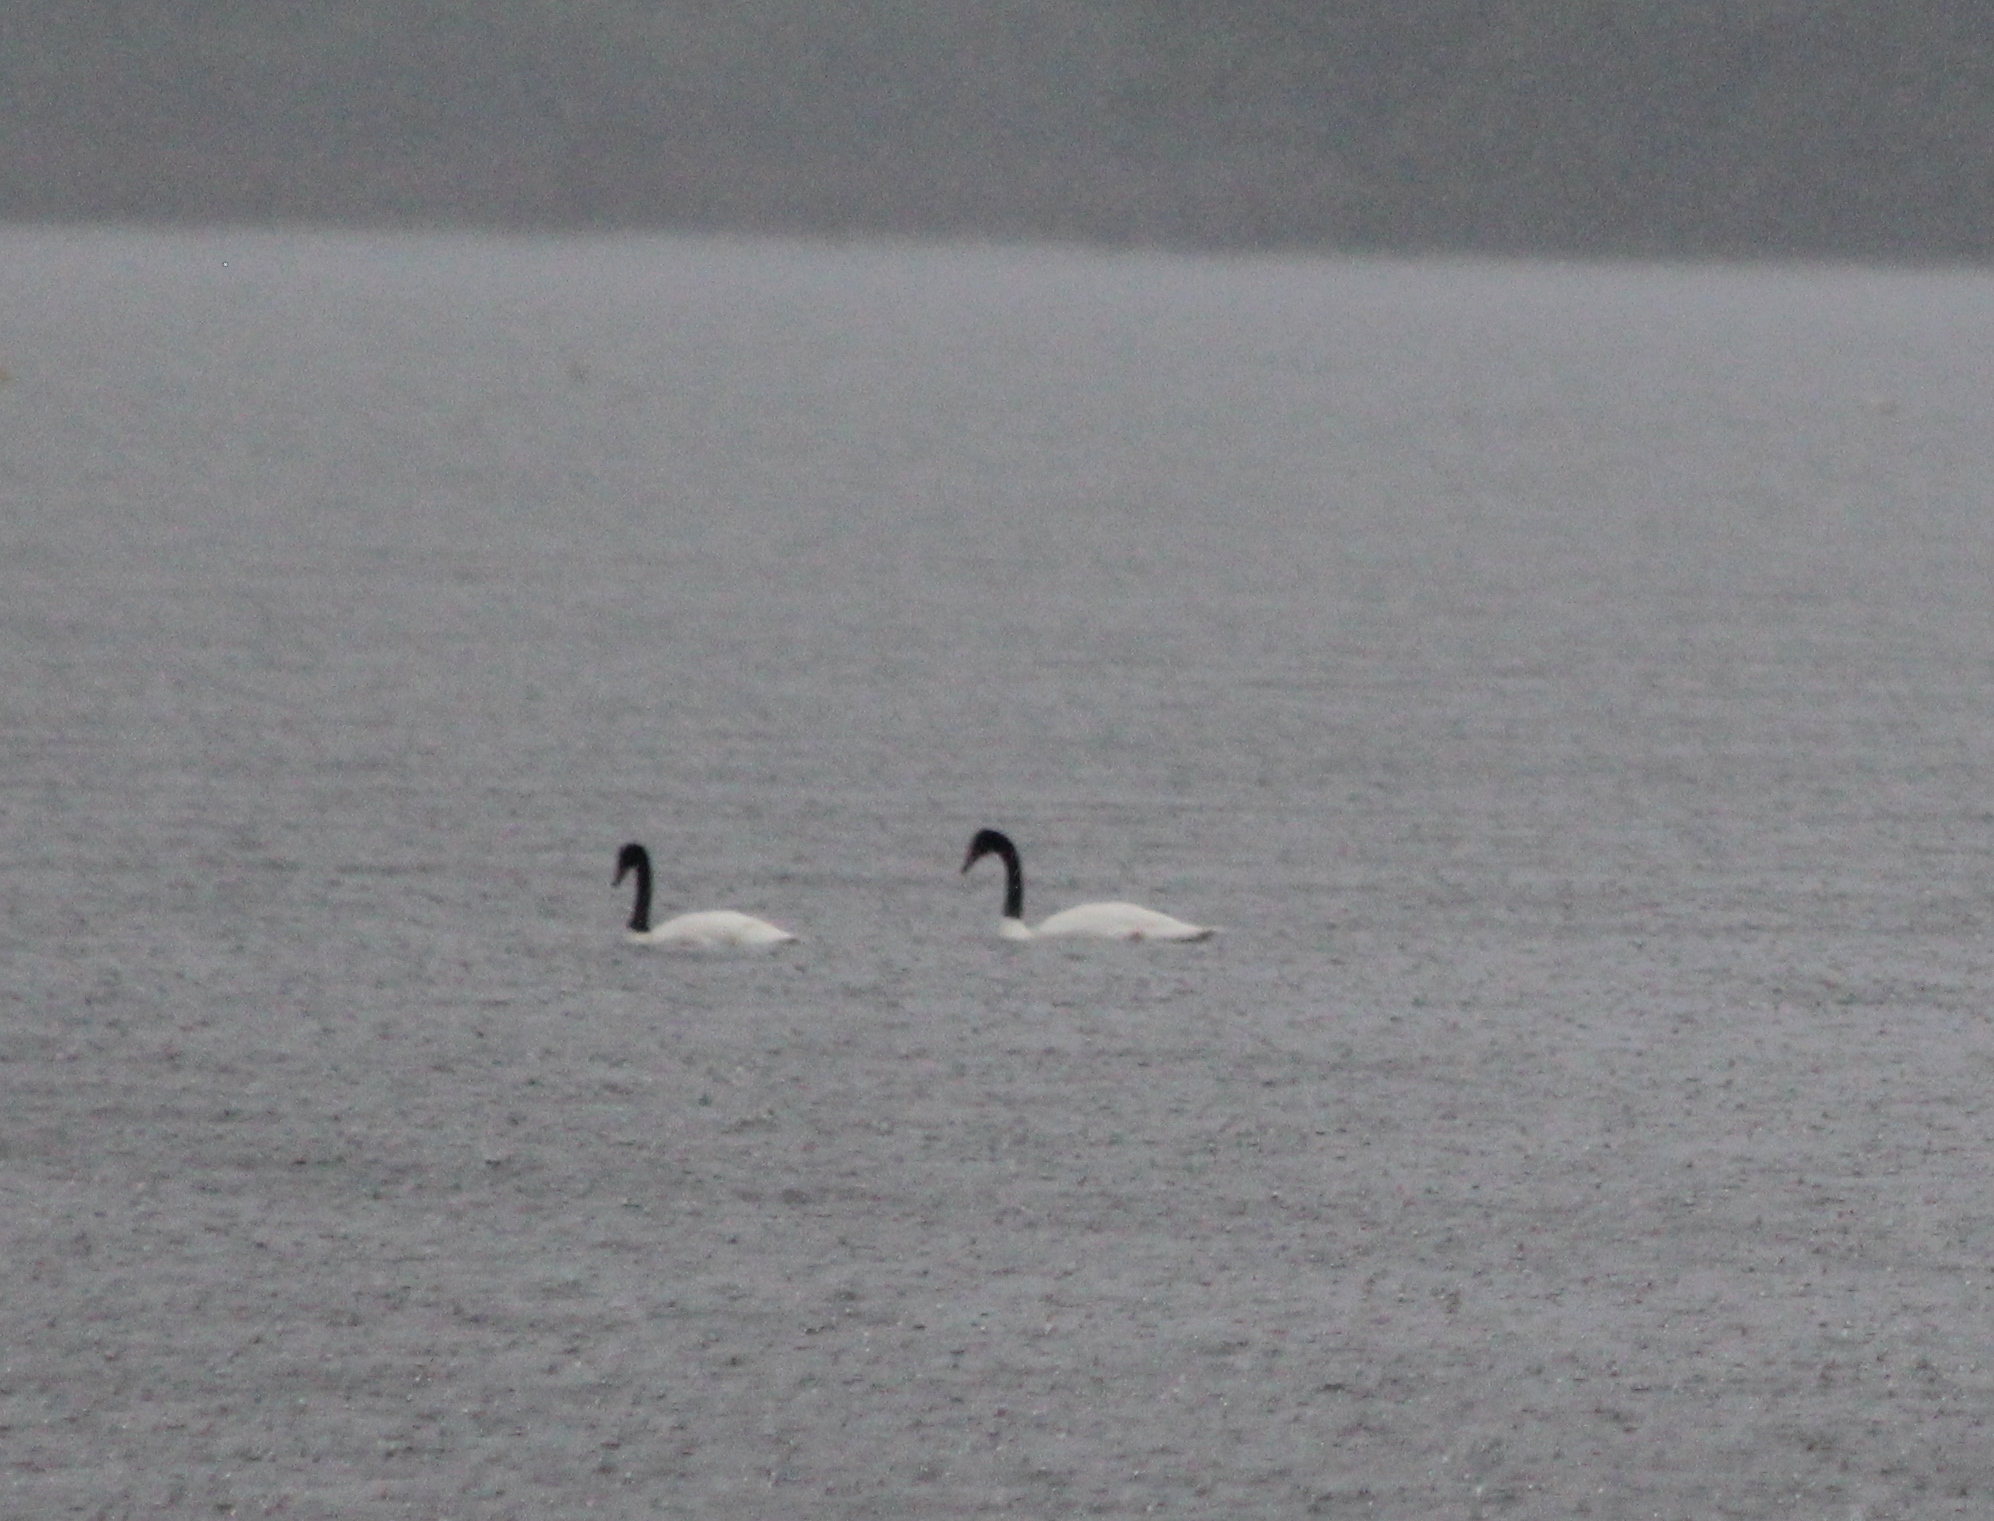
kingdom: Animalia
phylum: Chordata
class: Aves
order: Anseriformes
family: Anatidae
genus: Cygnus
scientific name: Cygnus melancoryphus
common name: Black-necked swan
